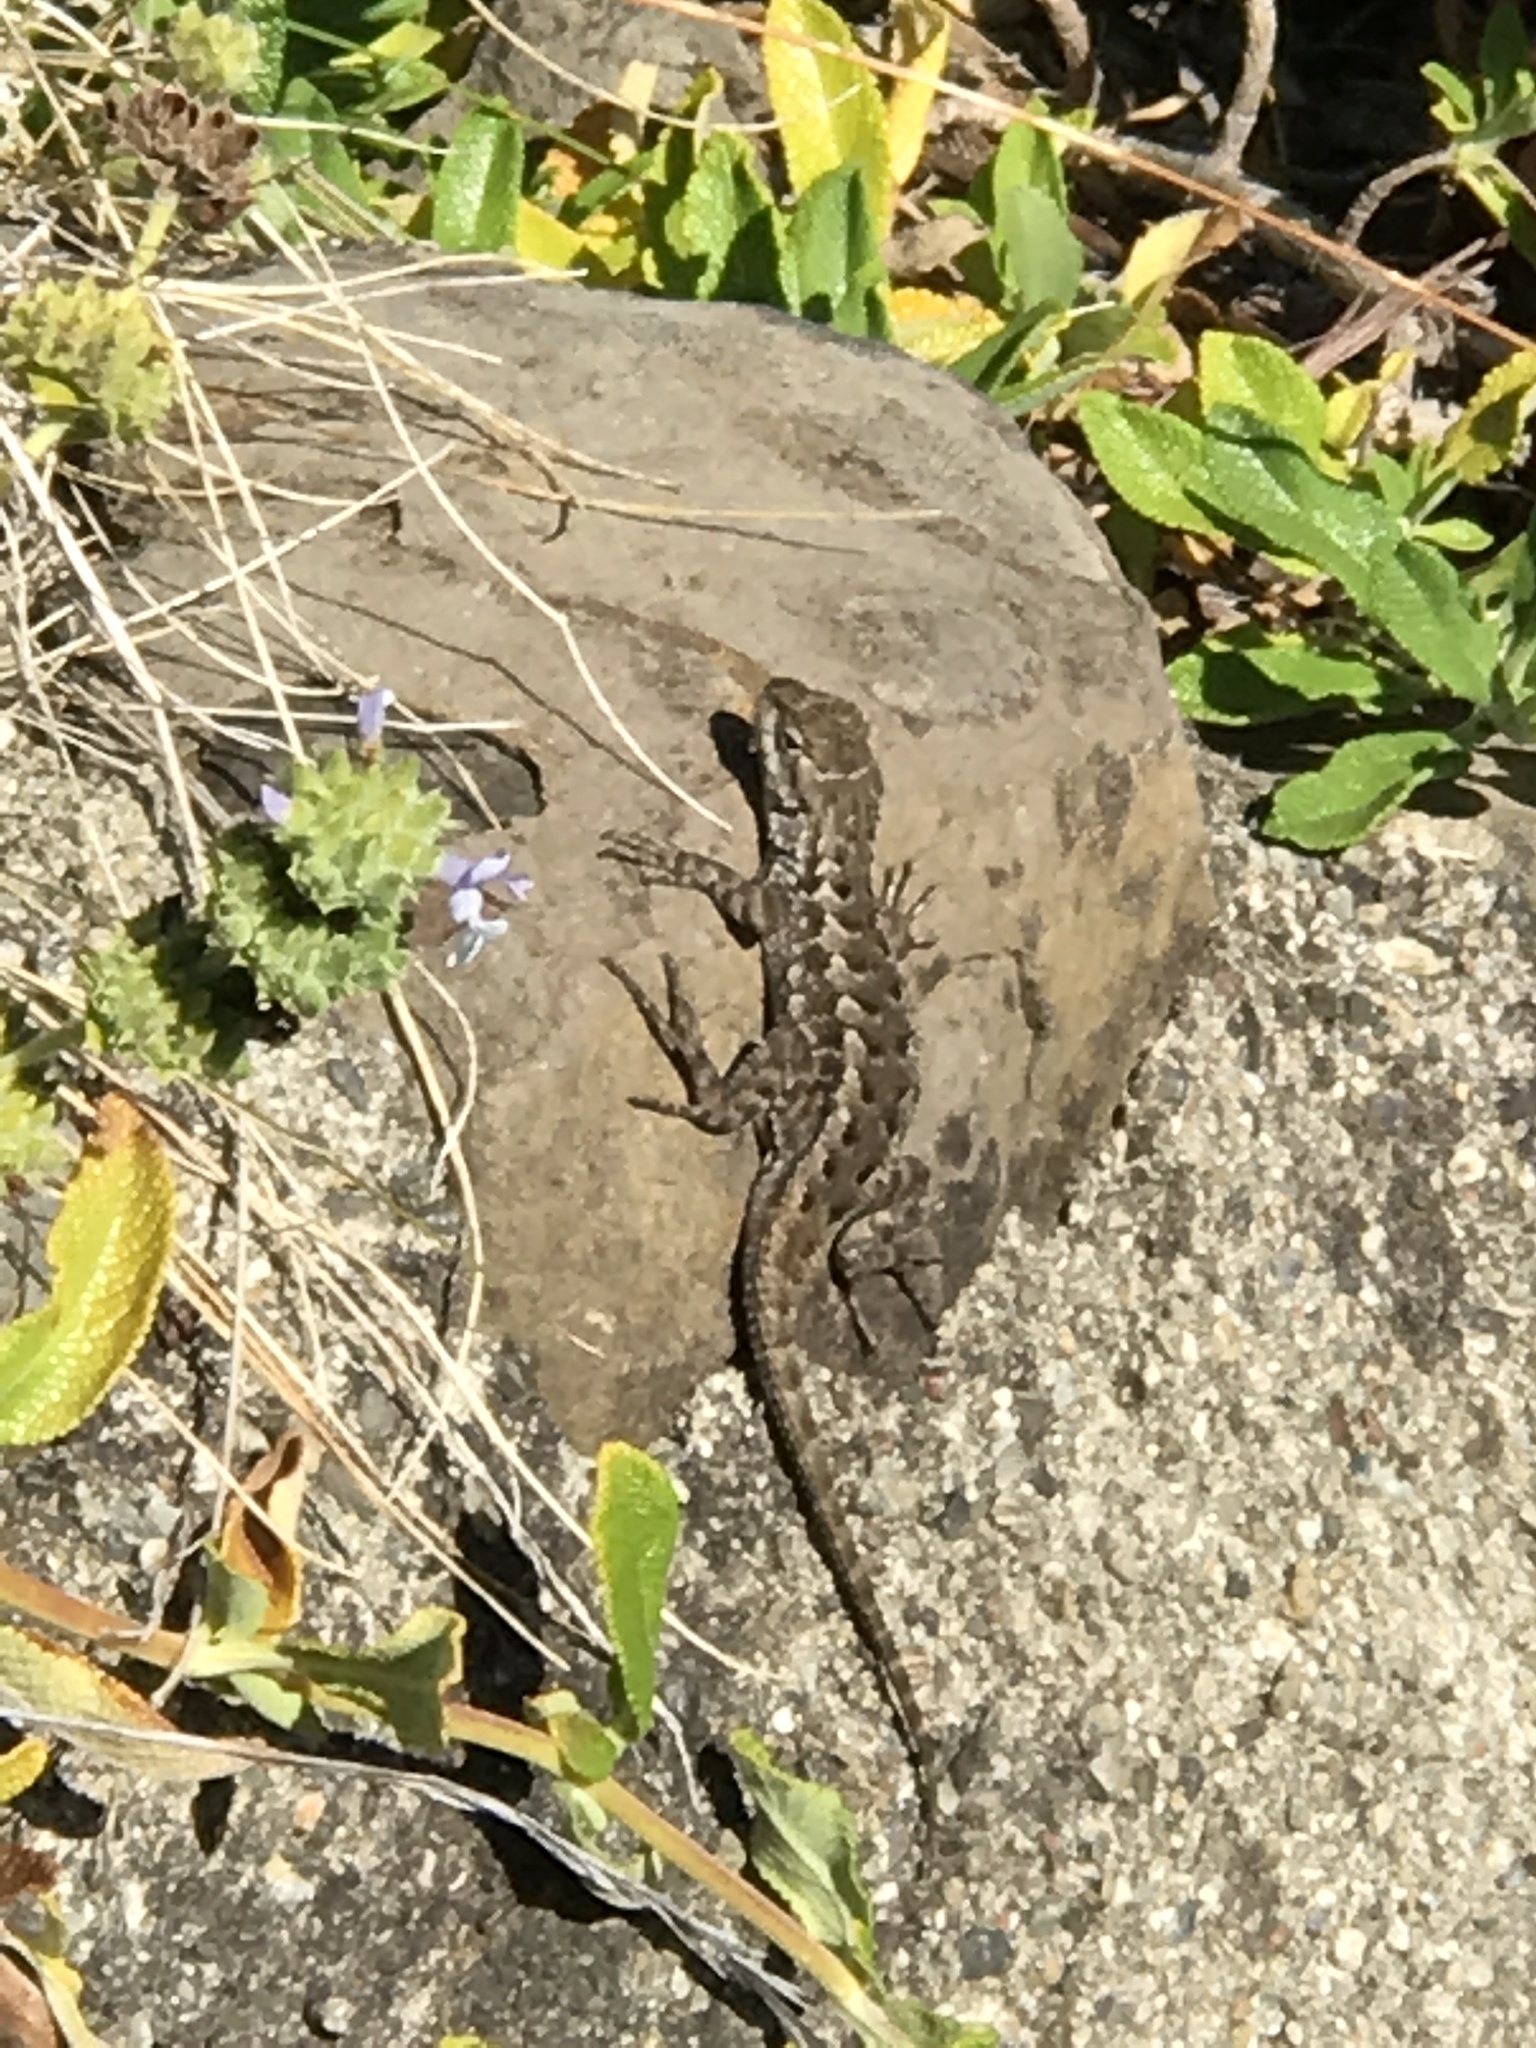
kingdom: Animalia
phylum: Chordata
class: Squamata
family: Phrynosomatidae
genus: Sceloporus
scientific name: Sceloporus occidentalis
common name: Western fence lizard
